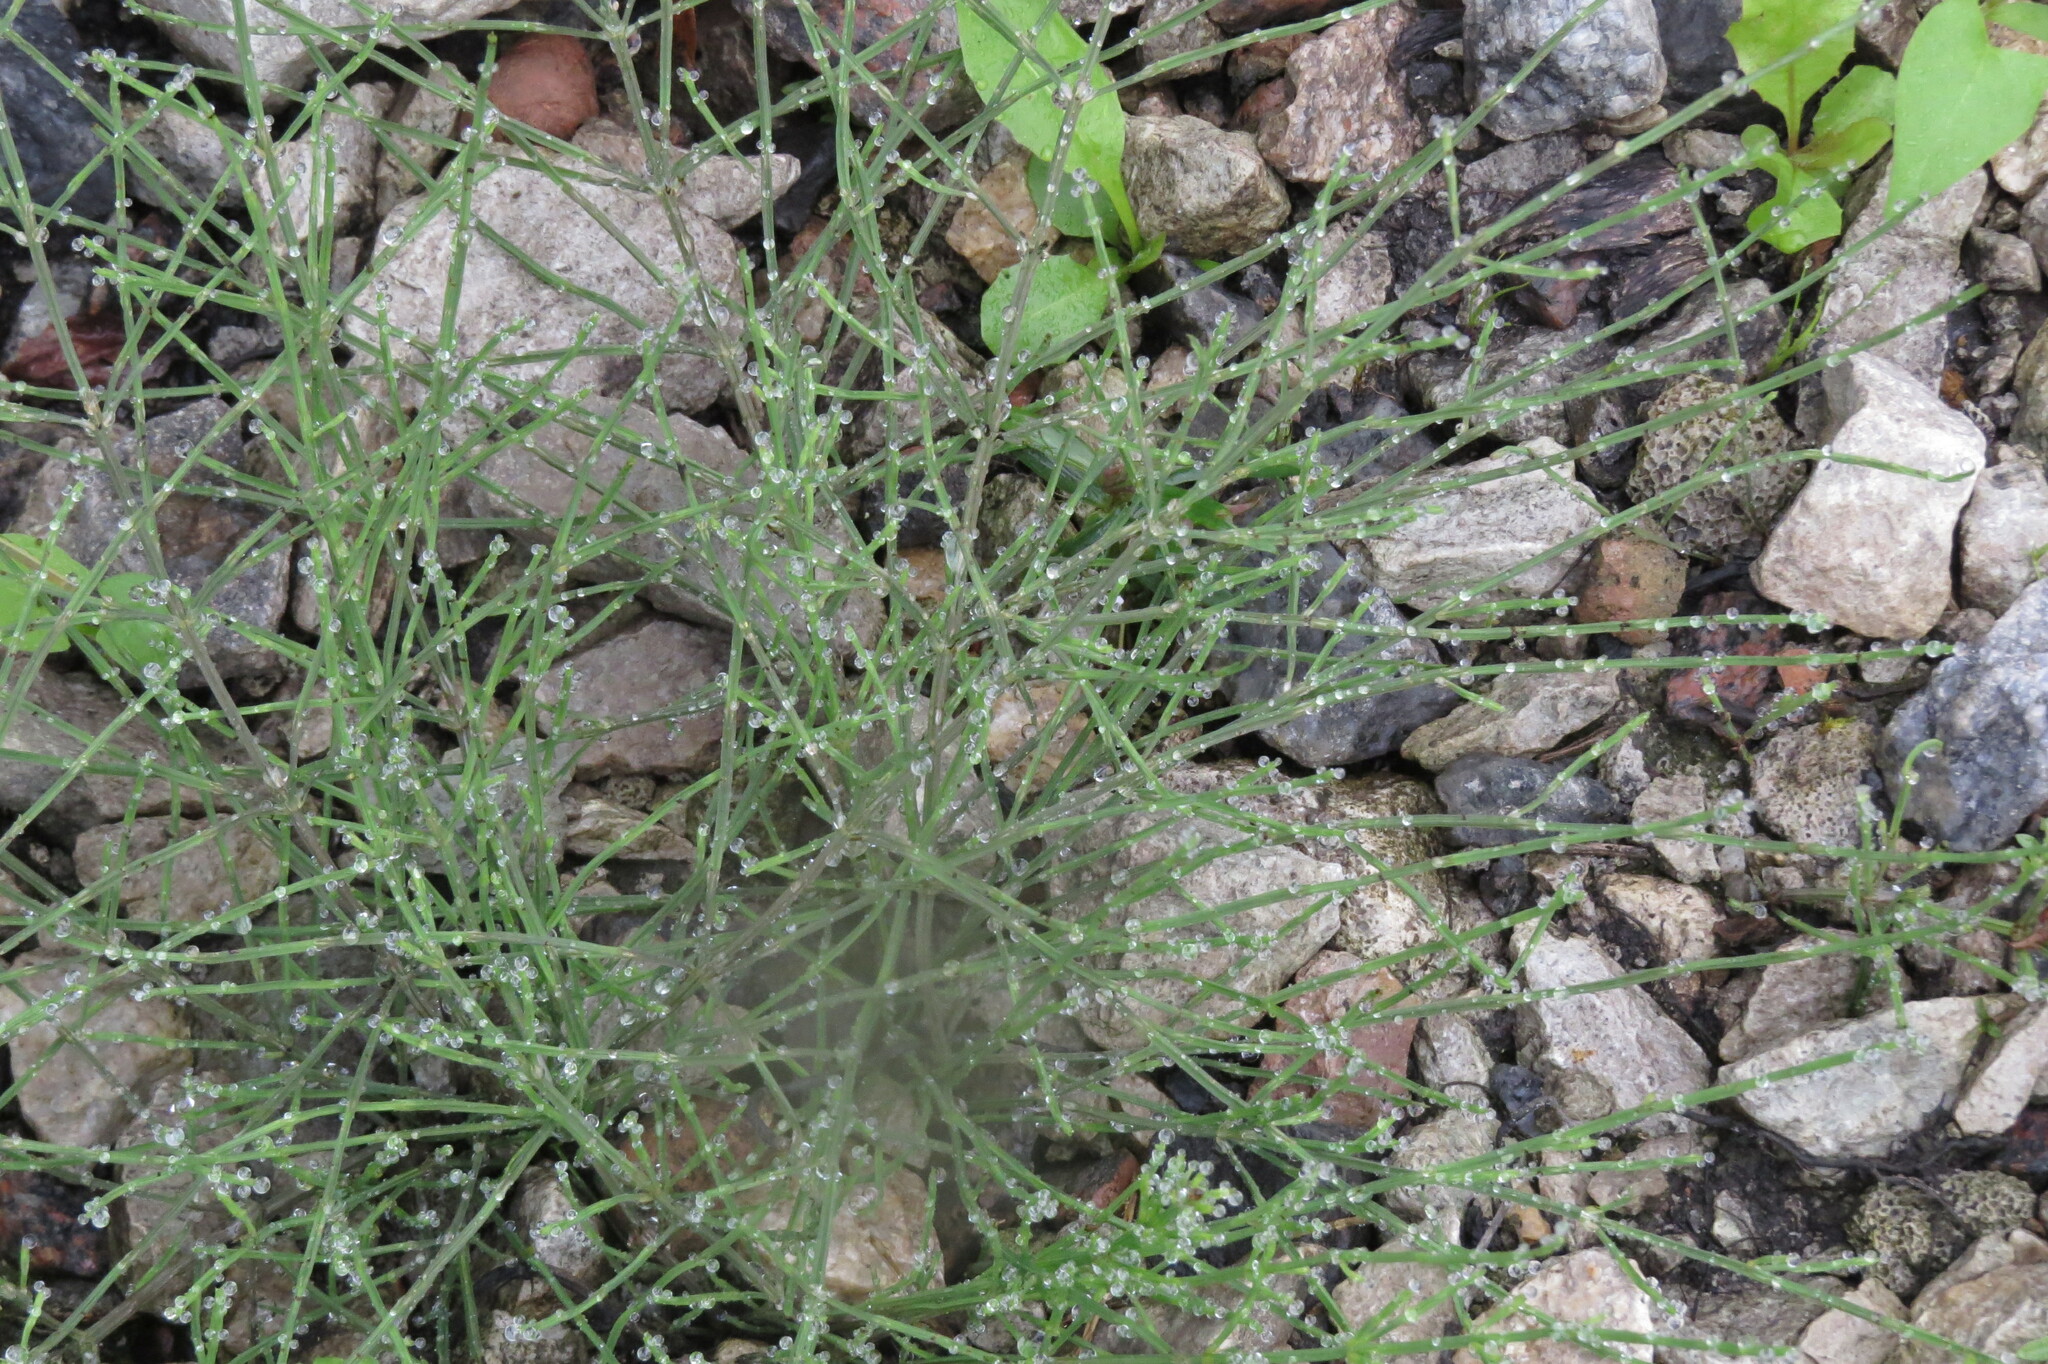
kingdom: Plantae
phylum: Tracheophyta
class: Polypodiopsida
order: Equisetales
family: Equisetaceae
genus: Equisetum
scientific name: Equisetum arvense
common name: Field horsetail
